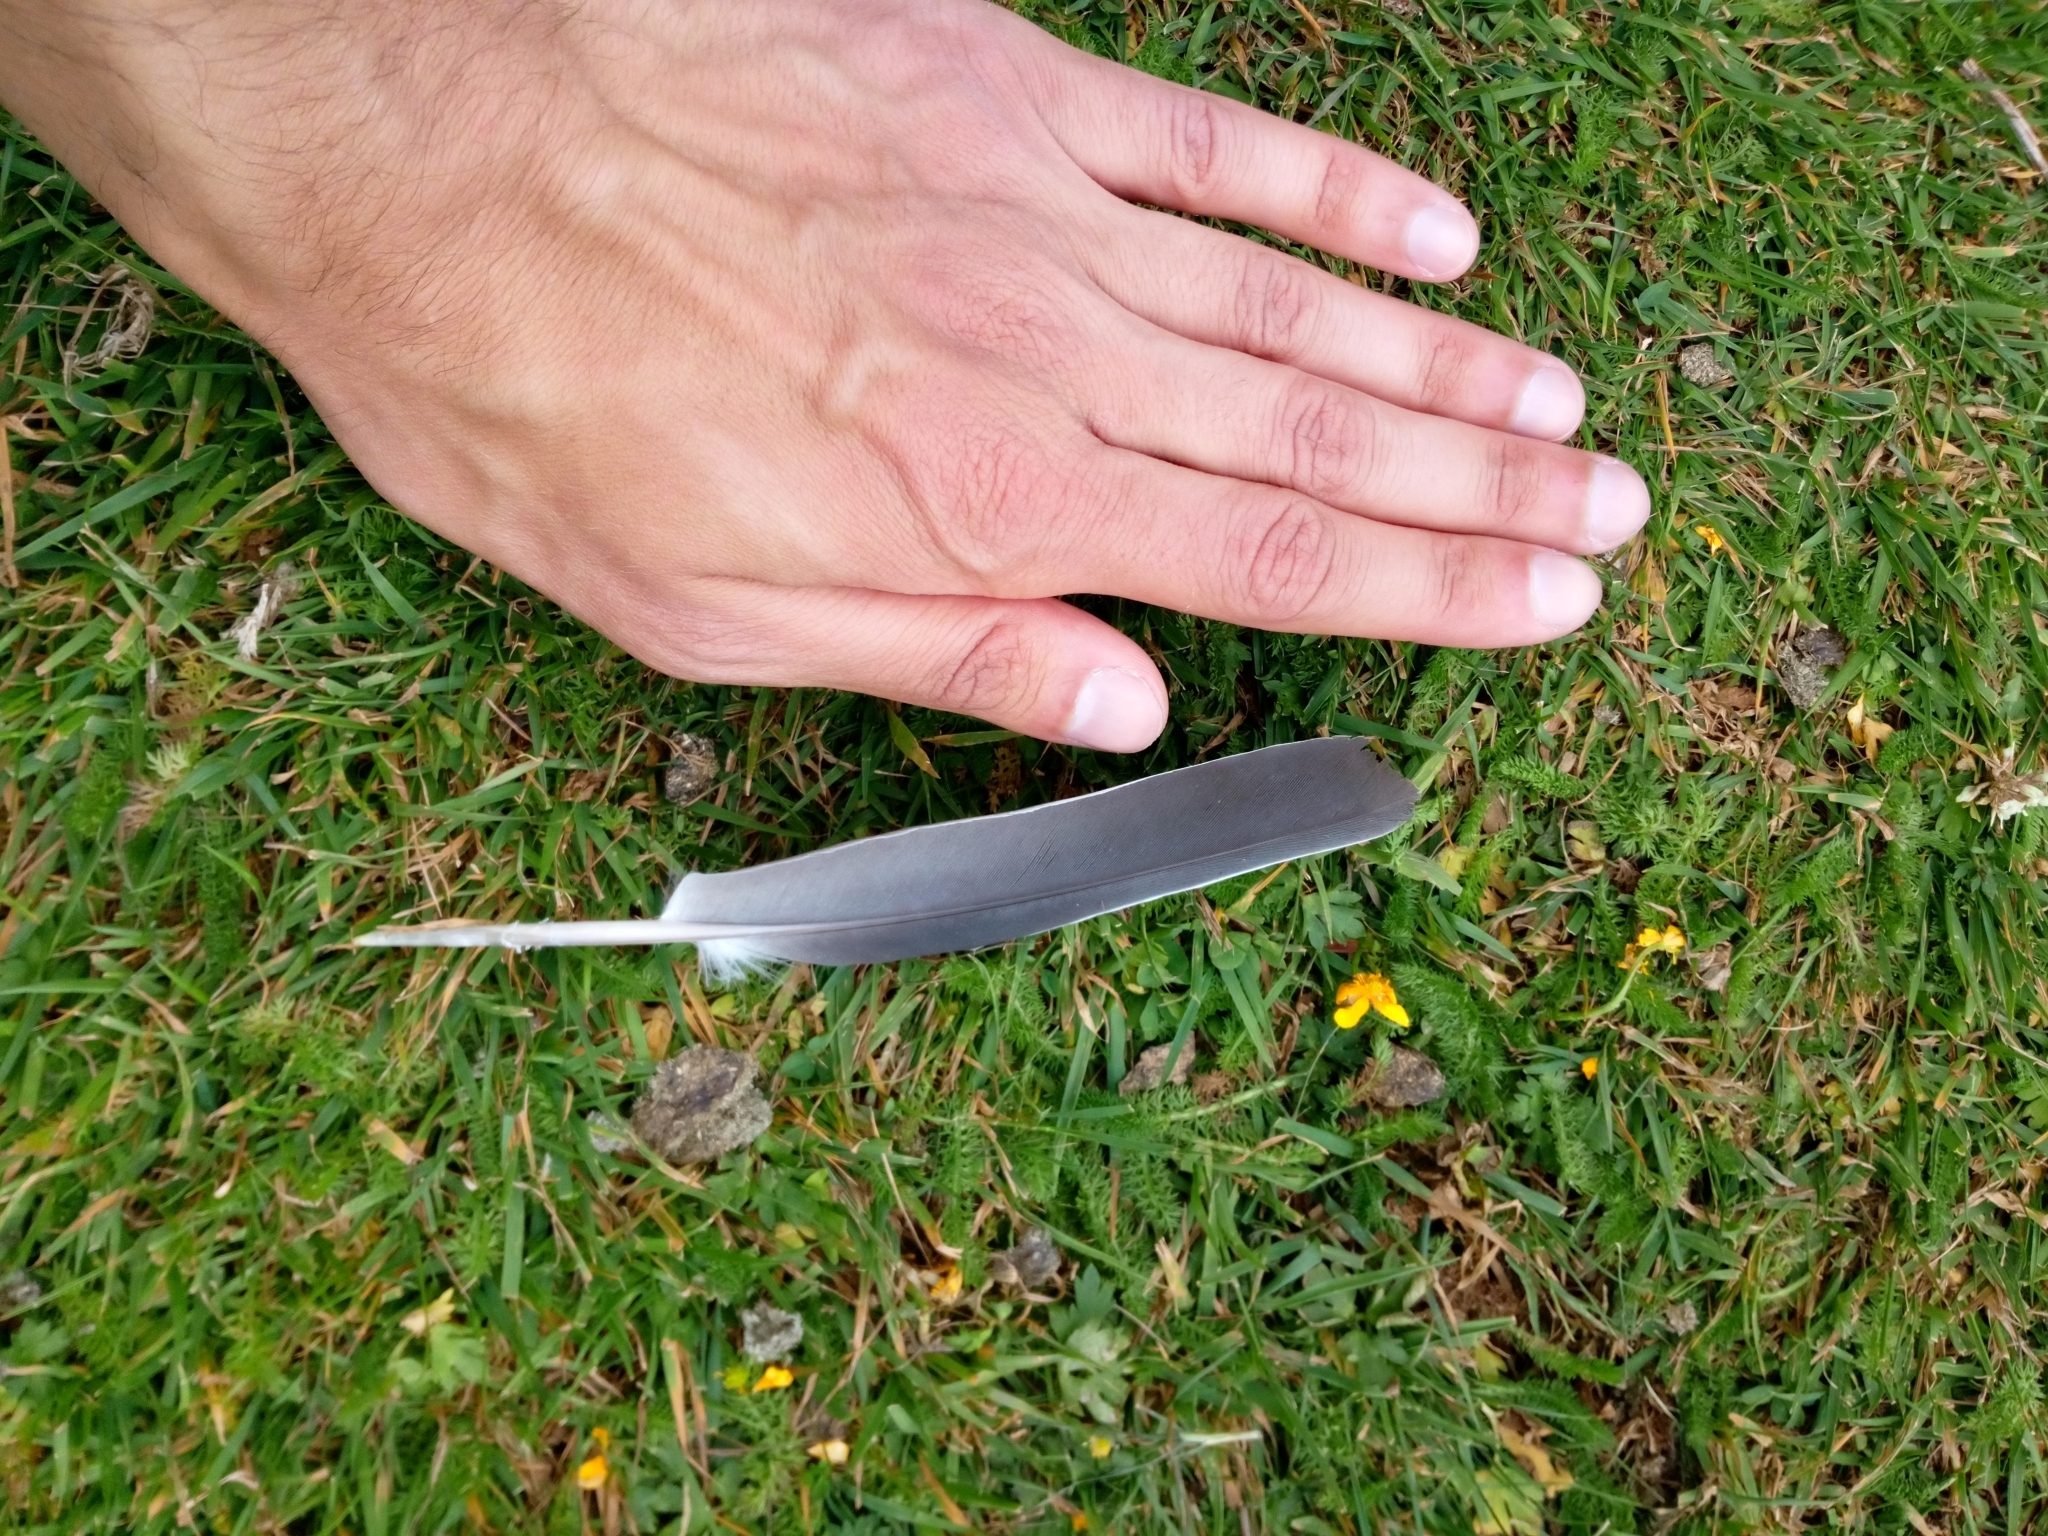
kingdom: Animalia
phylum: Chordata
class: Aves
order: Columbiformes
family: Columbidae
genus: Columba
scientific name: Columba palumbus
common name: Common wood pigeon
